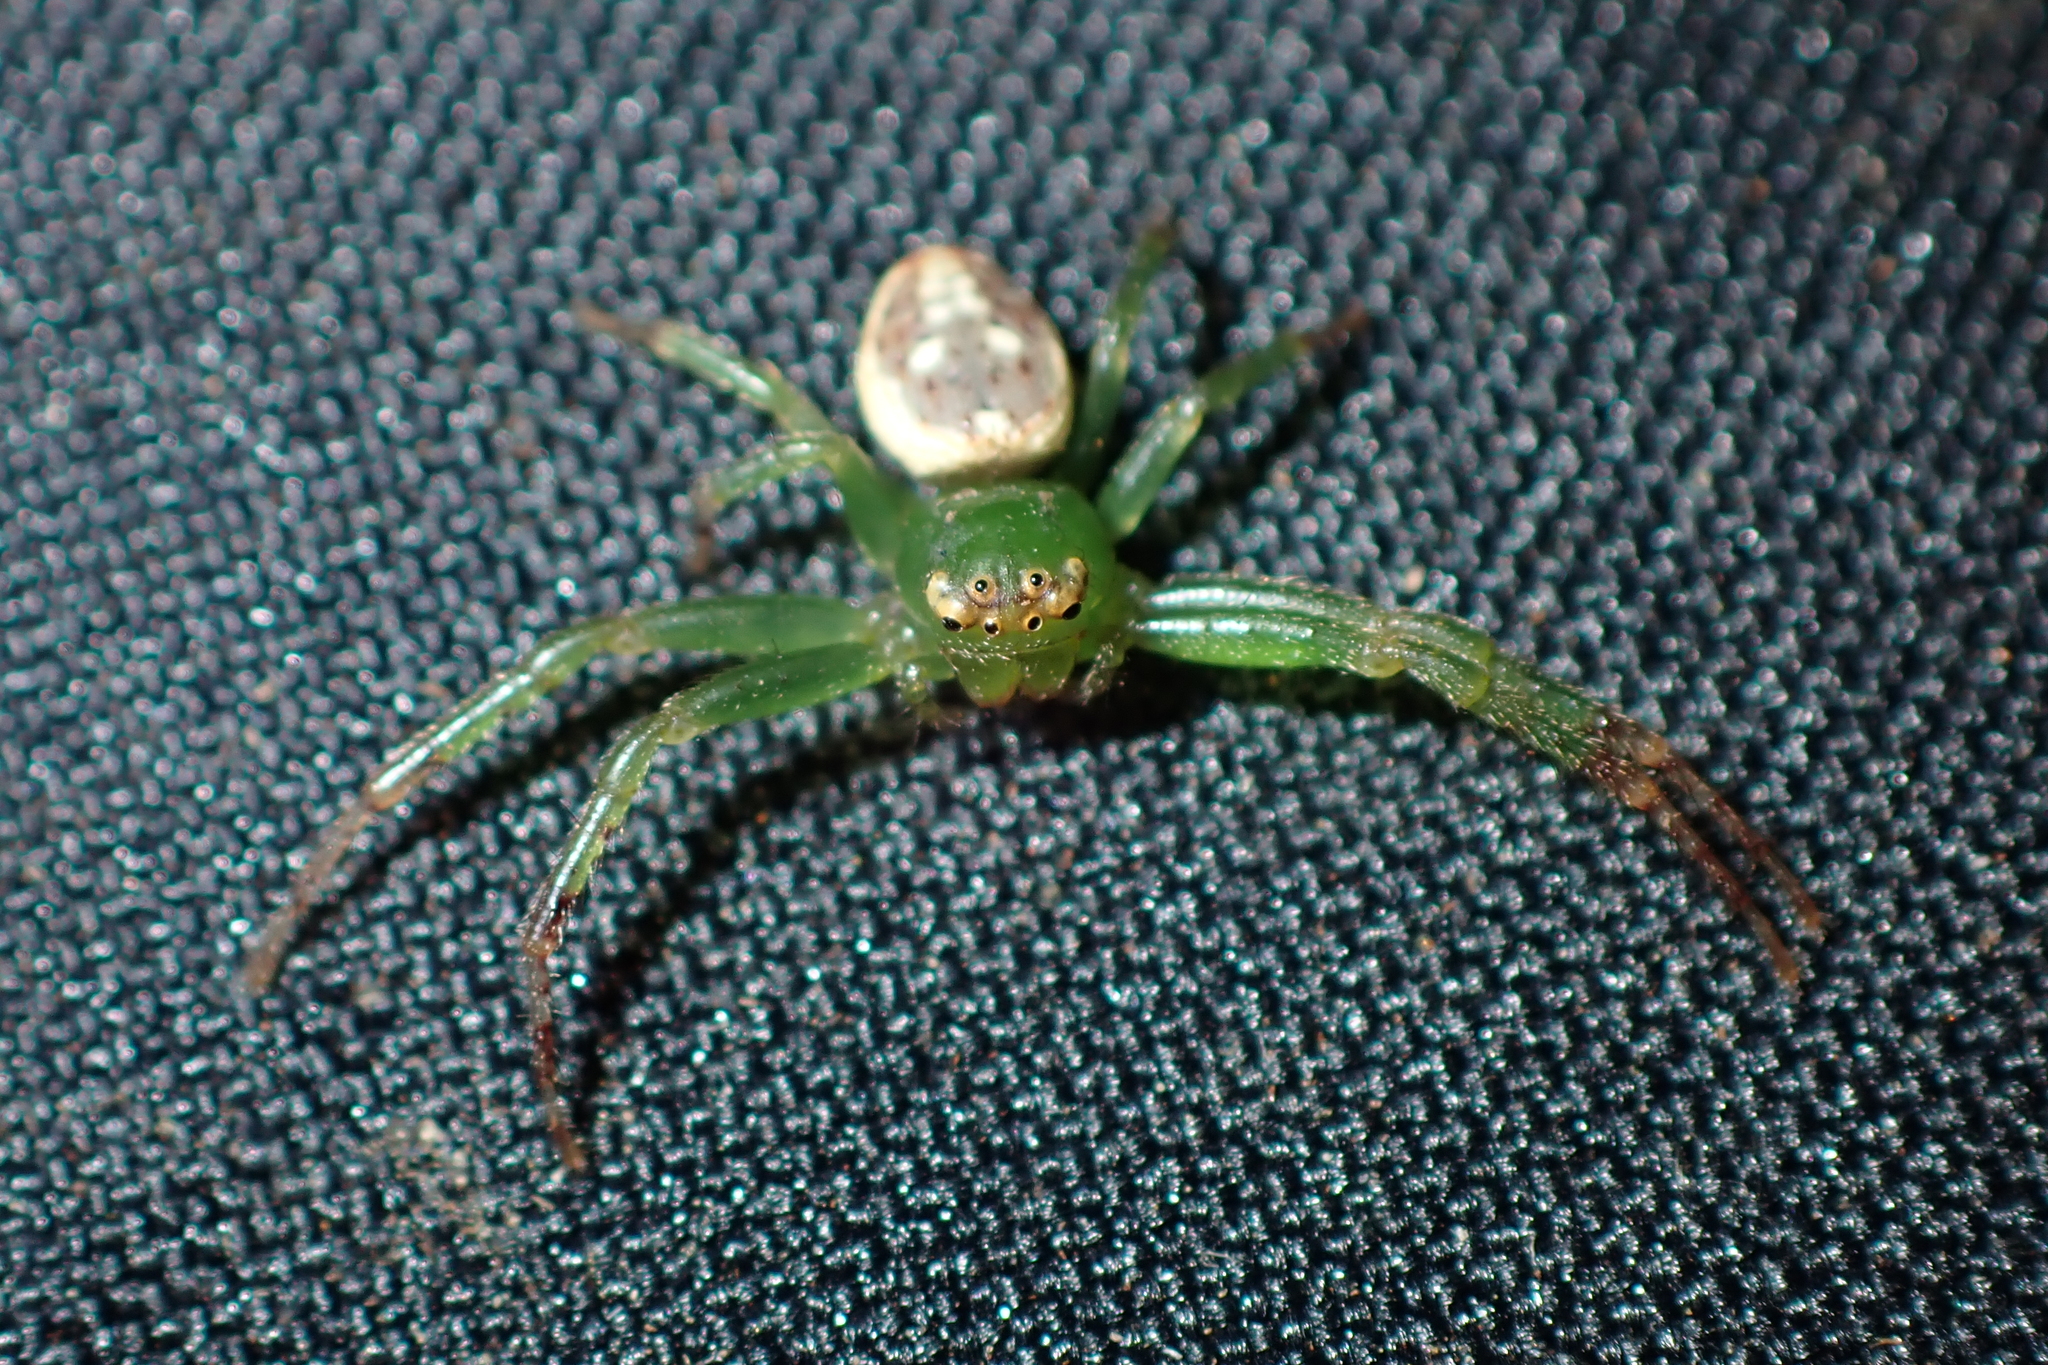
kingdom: Animalia
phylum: Arthropoda
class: Arachnida
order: Araneae
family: Thomisidae
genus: Diaea
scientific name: Diaea ambara
